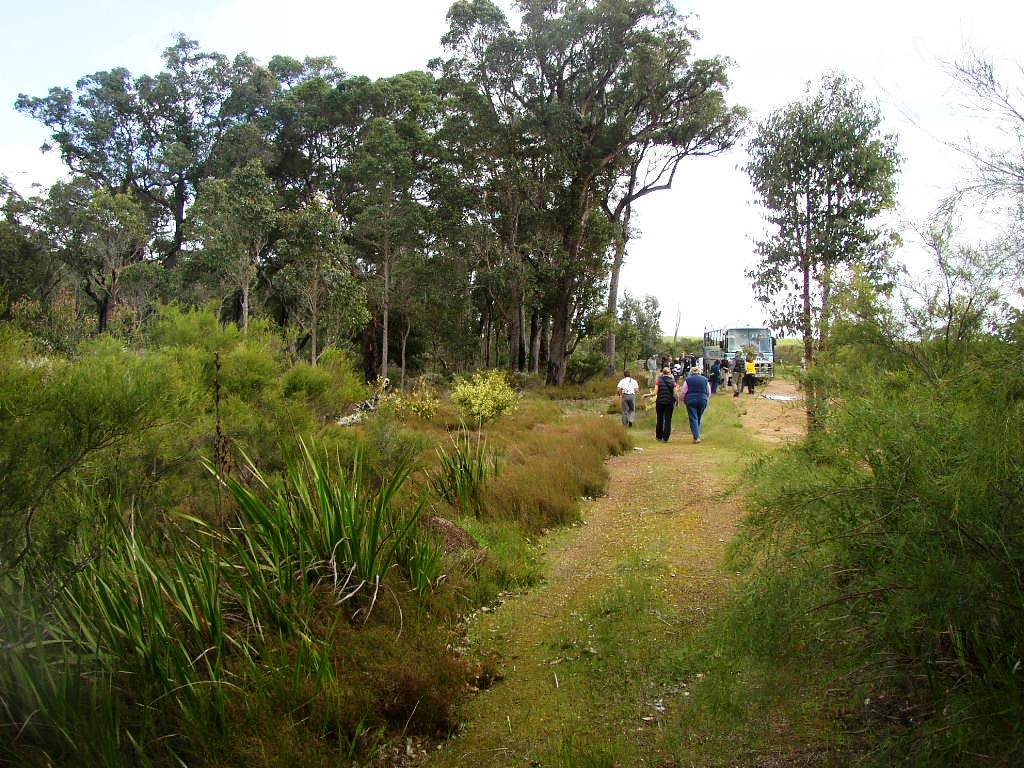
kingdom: Plantae
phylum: Tracheophyta
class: Liliopsida
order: Asparagales
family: Iridaceae
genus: Watsonia
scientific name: Watsonia meriana
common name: Bulbil bugle-lily
